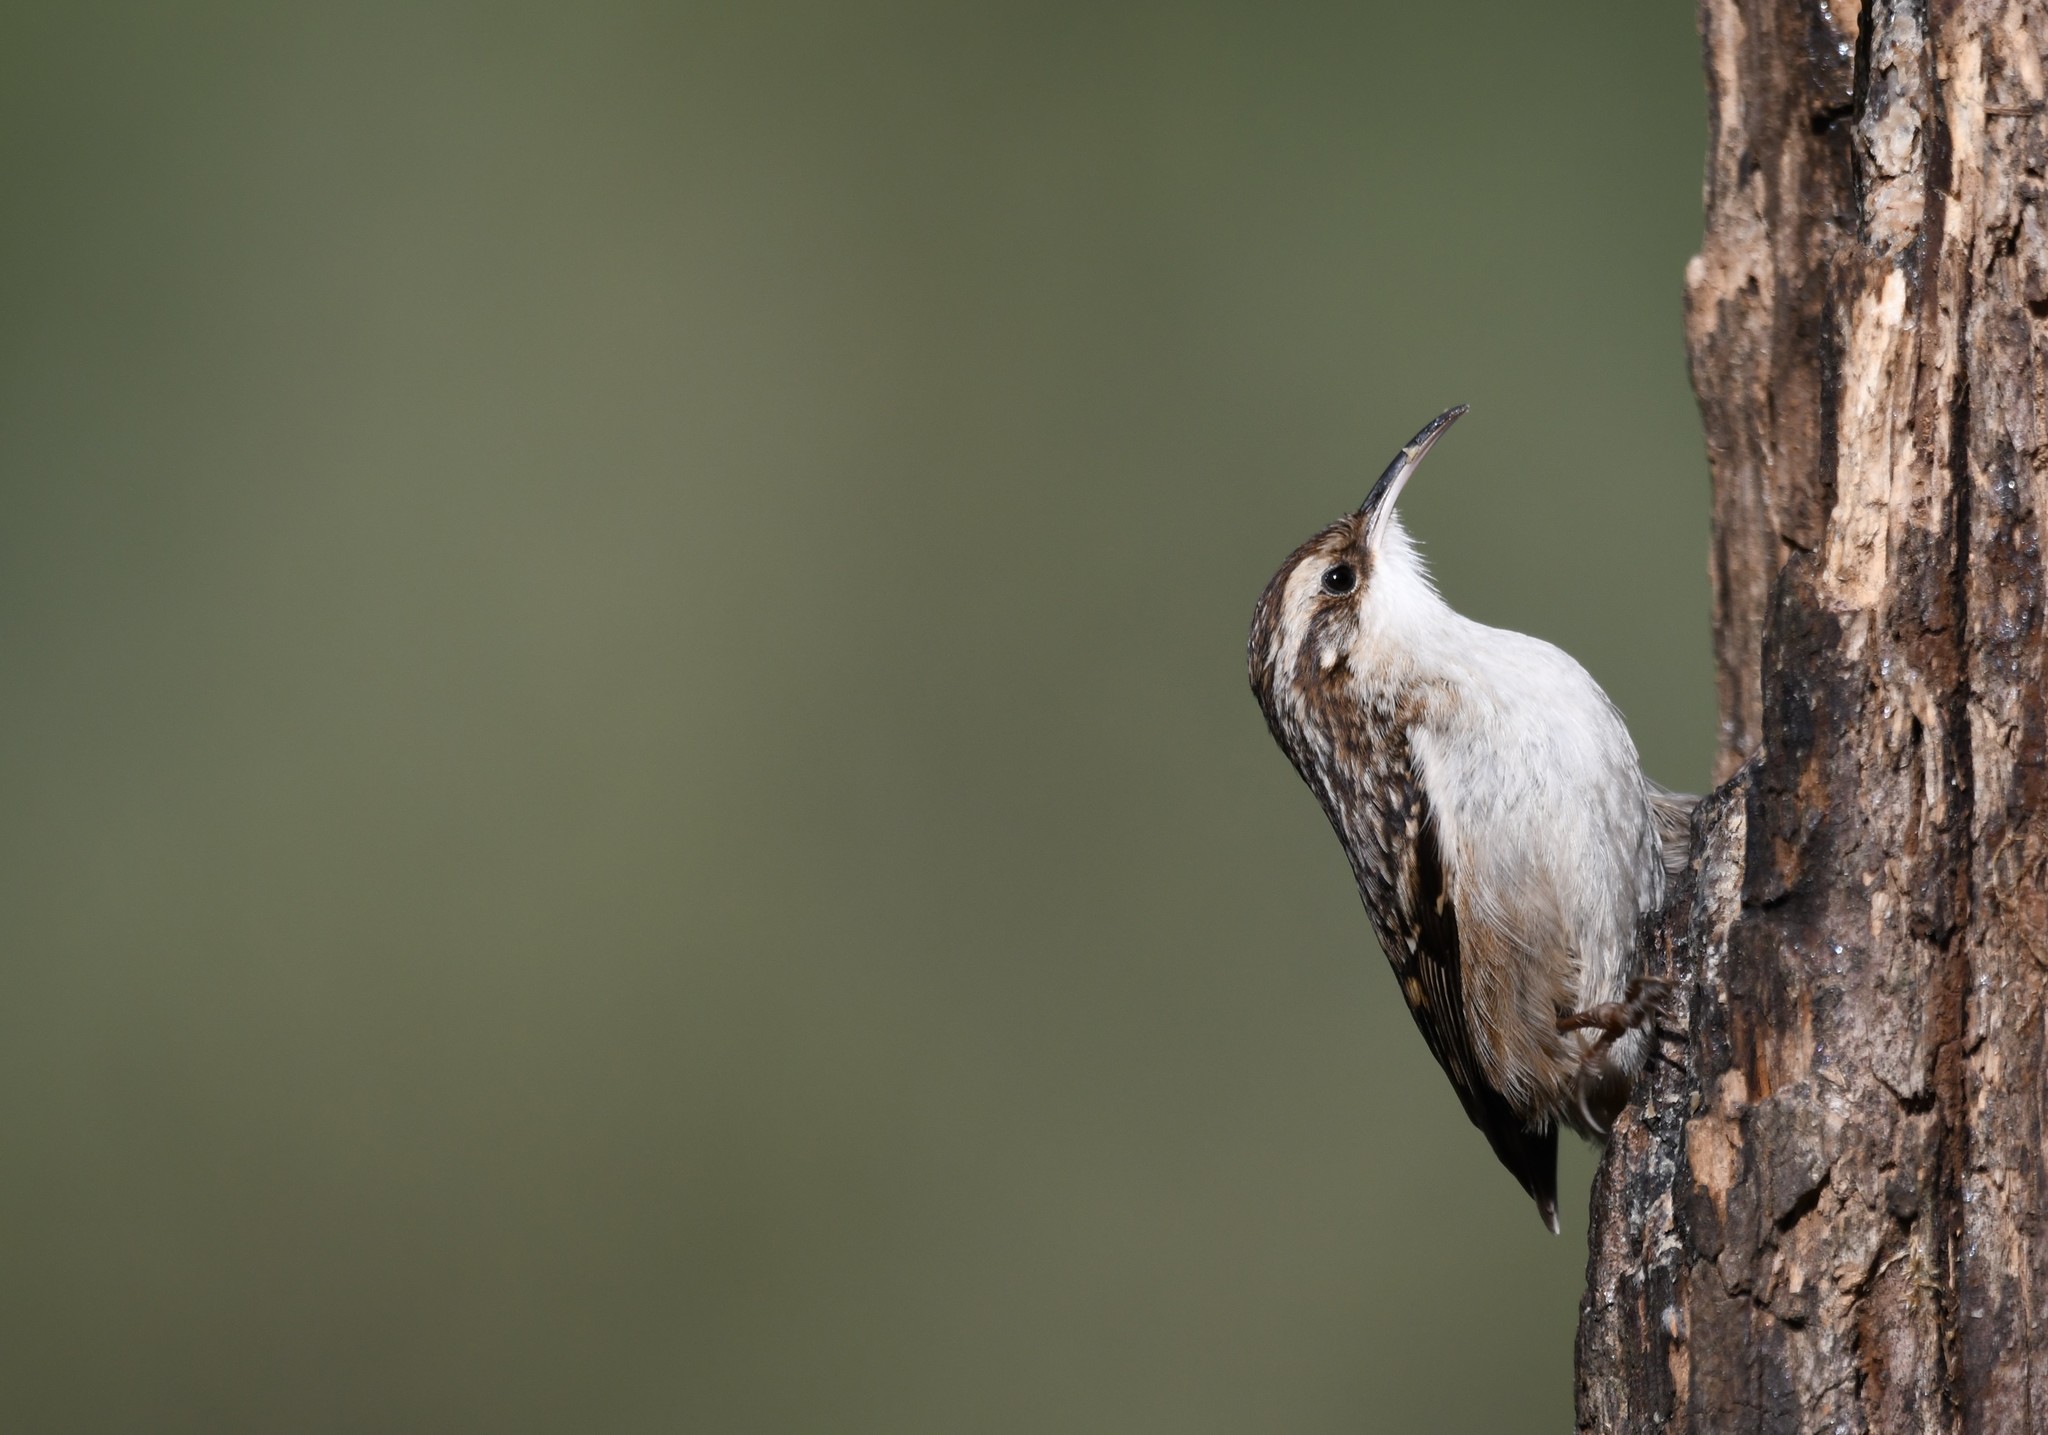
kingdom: Animalia
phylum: Chordata
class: Aves
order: Passeriformes
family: Certhiidae
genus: Certhia
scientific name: Certhia brachydactyla
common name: Short-toed treecreeper
